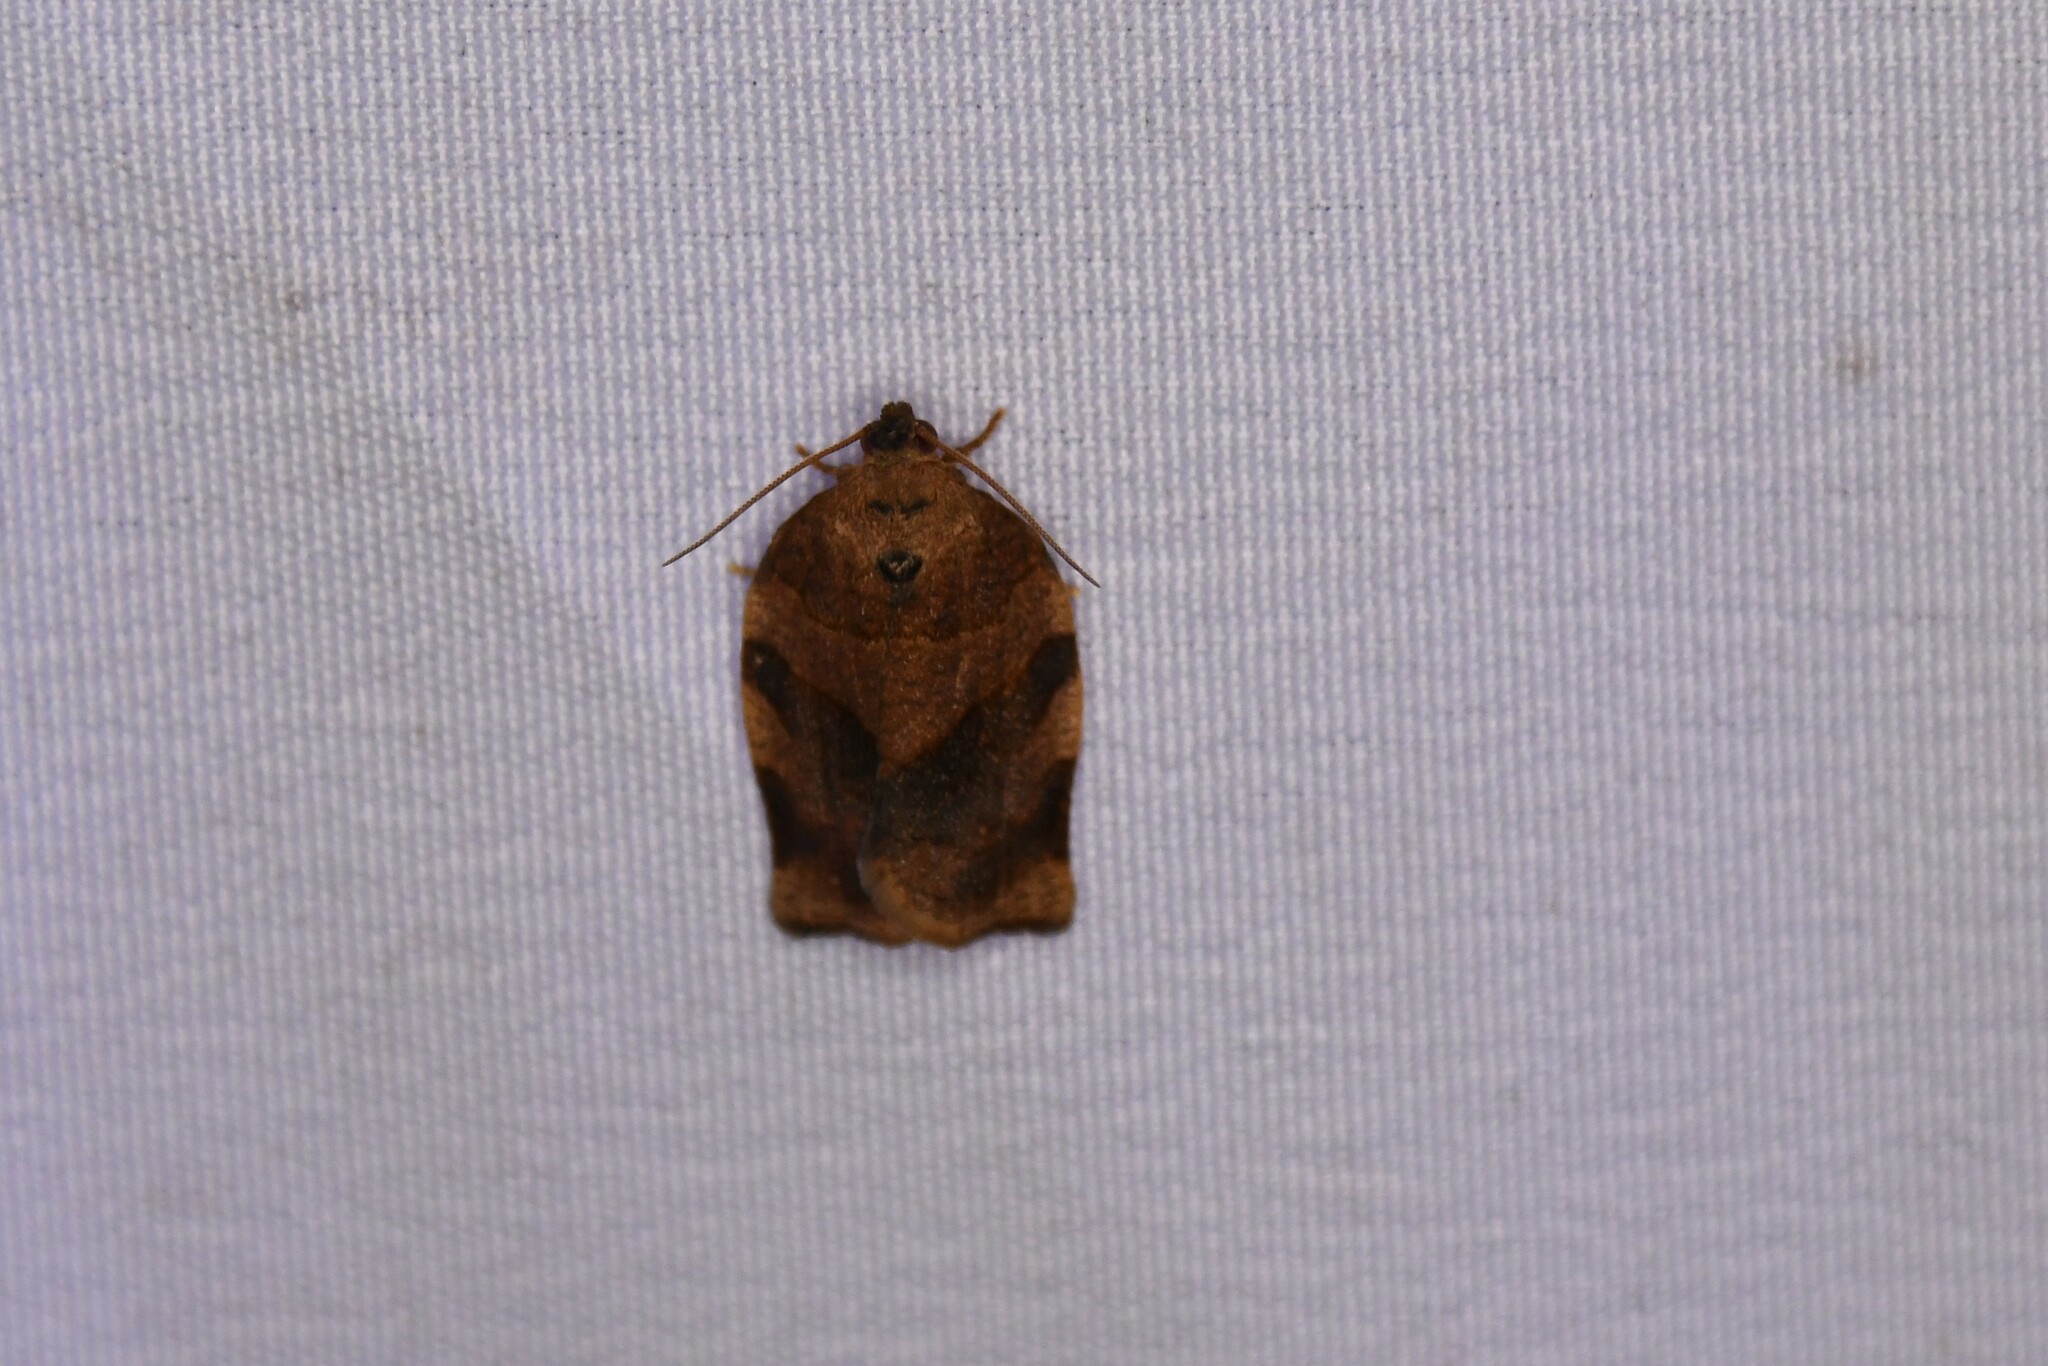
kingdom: Animalia
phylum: Arthropoda
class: Insecta
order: Lepidoptera
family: Tortricidae
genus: Choristoneura
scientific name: Choristoneura rosaceana
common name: Oblique-banded leafroller moth
